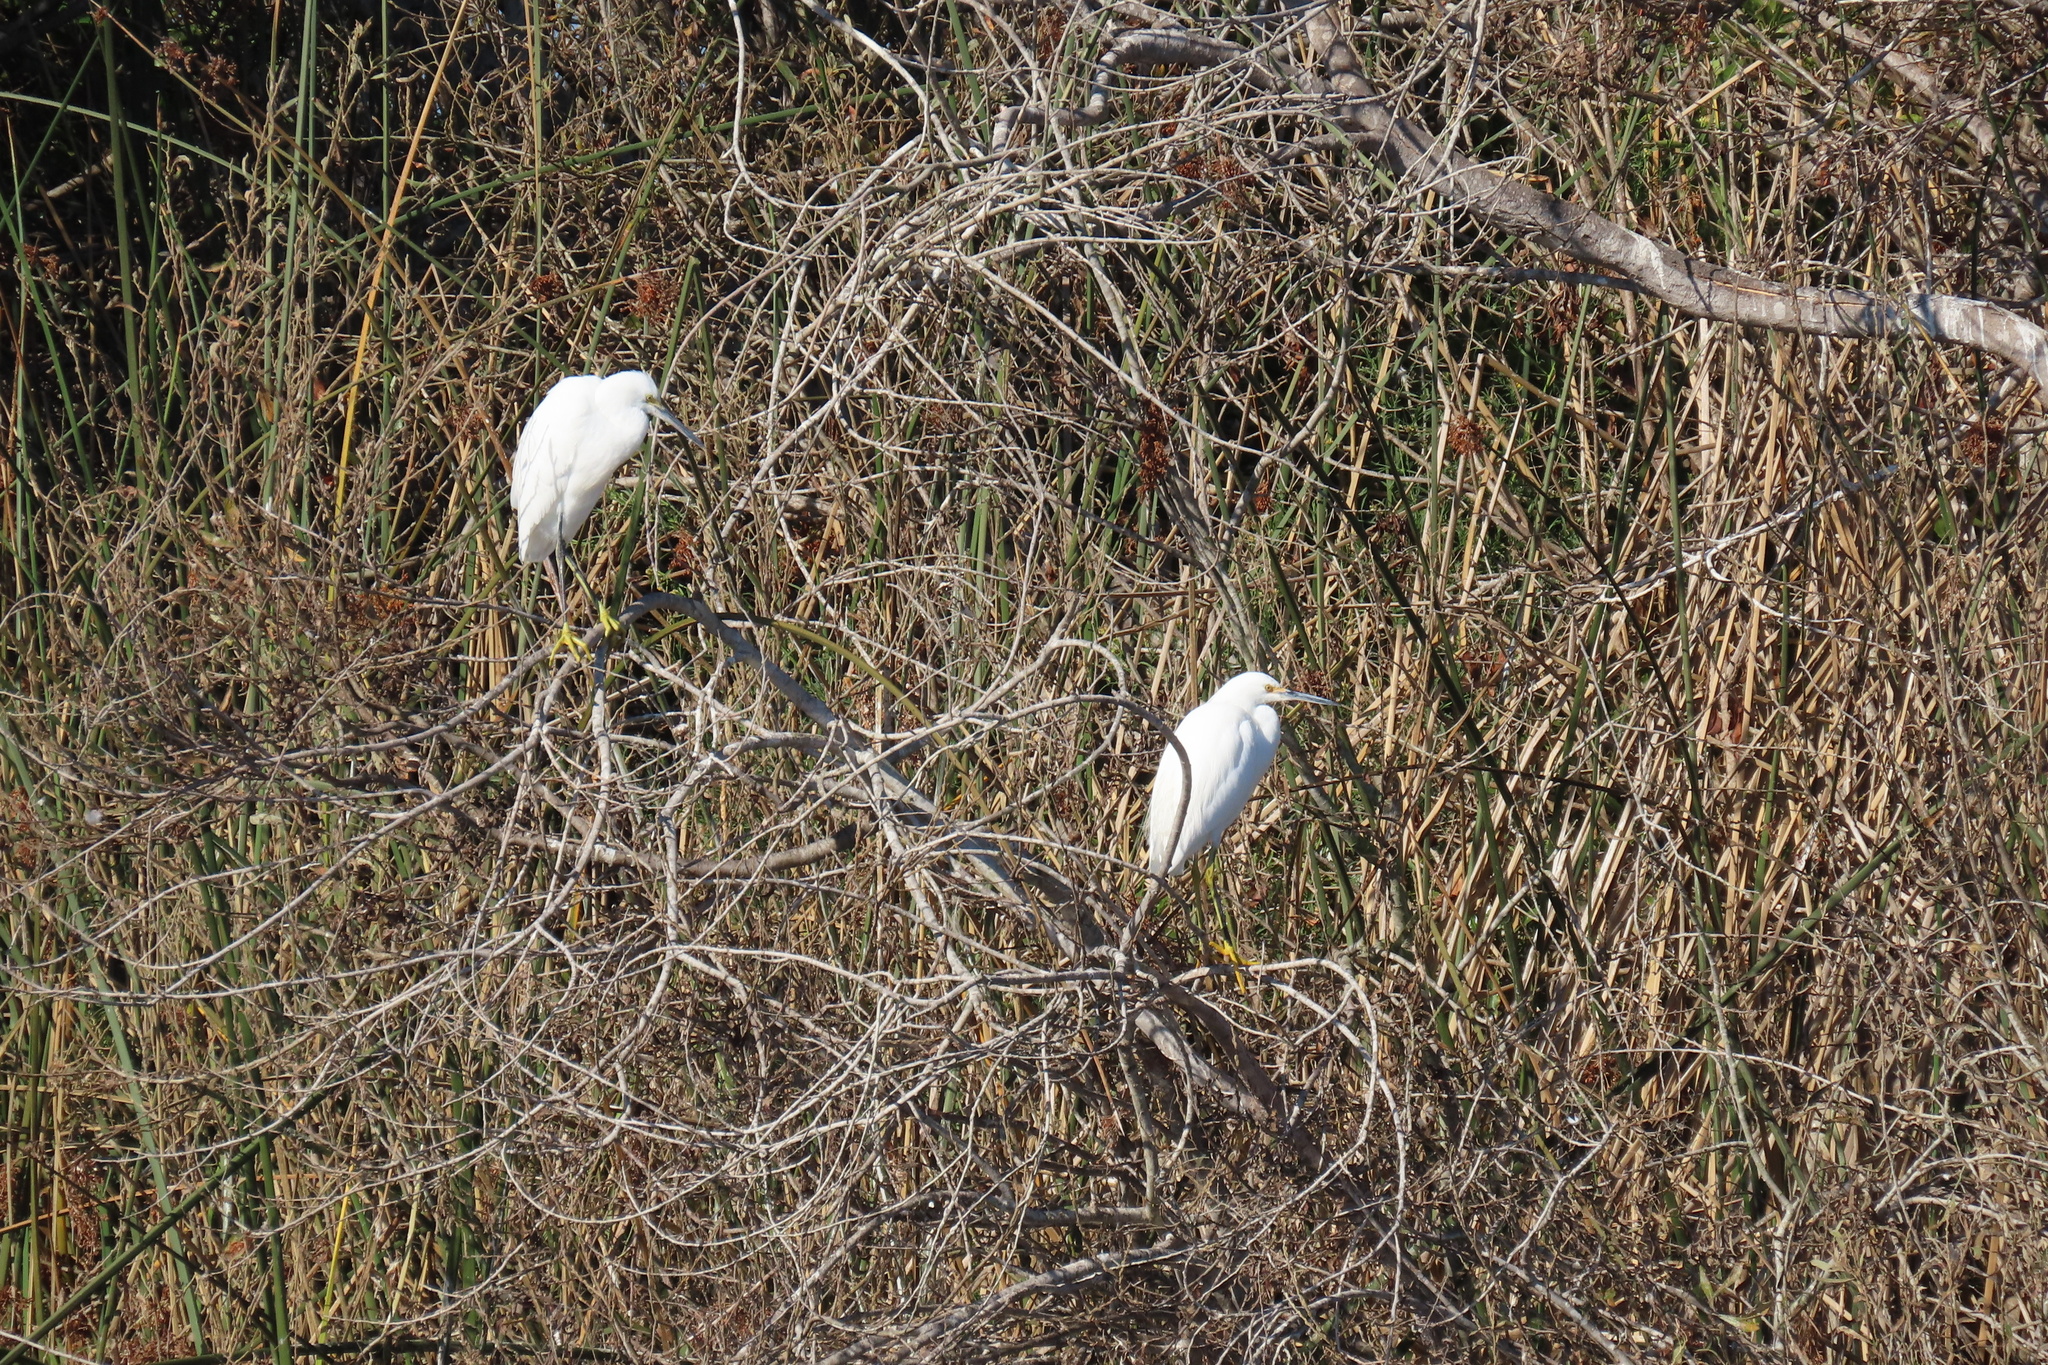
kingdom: Animalia
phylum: Chordata
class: Aves
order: Pelecaniformes
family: Ardeidae
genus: Egretta
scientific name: Egretta thula
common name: Snowy egret
